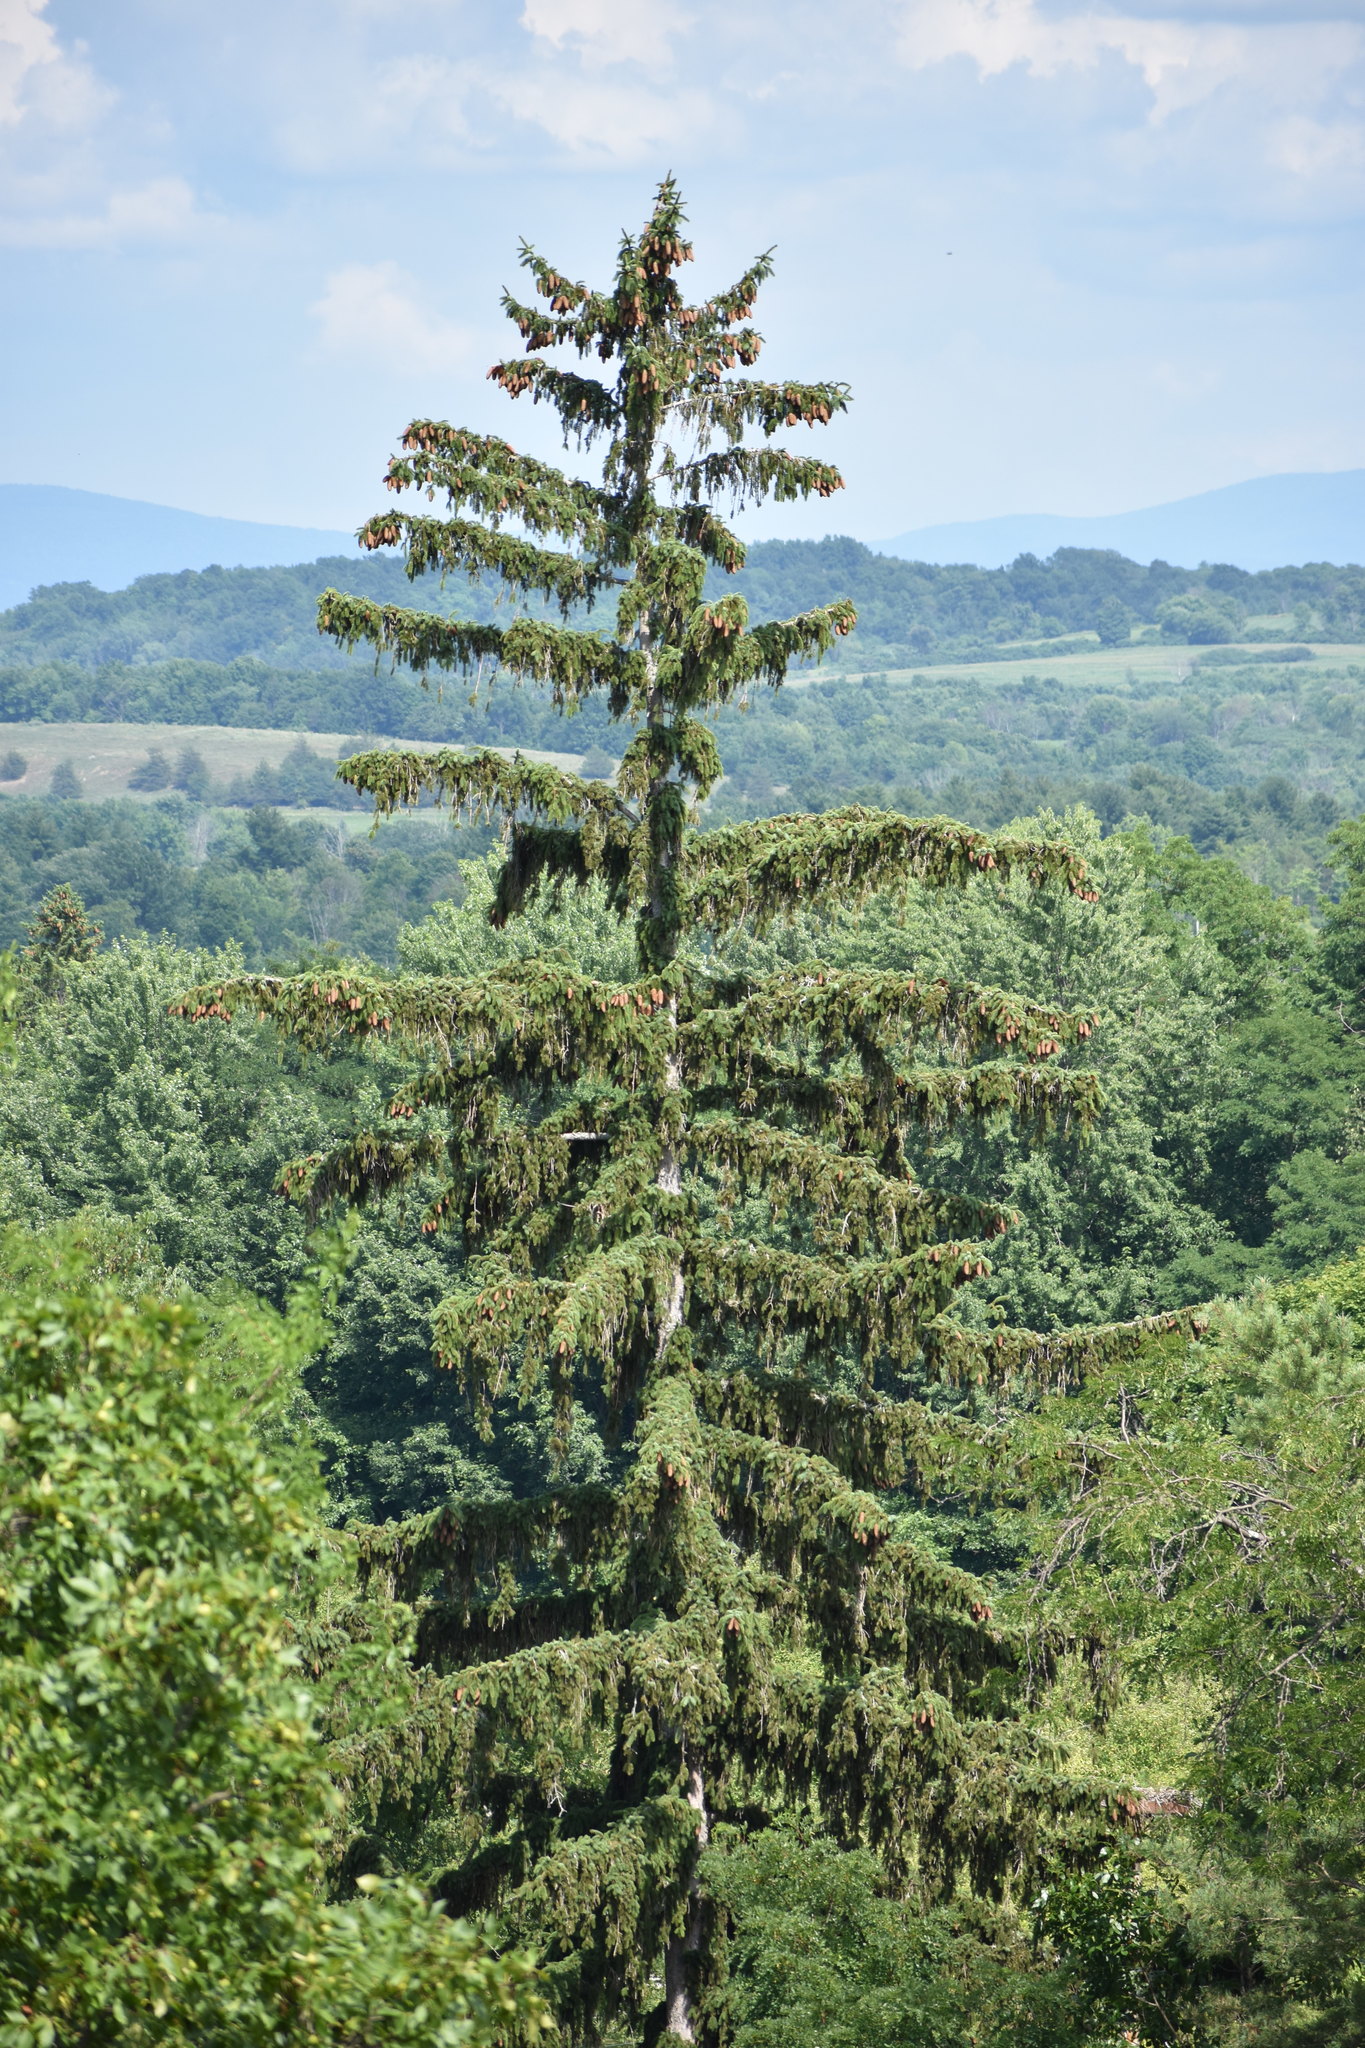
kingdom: Plantae
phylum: Tracheophyta
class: Pinopsida
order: Pinales
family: Pinaceae
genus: Picea
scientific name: Picea abies
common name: Norway spruce
